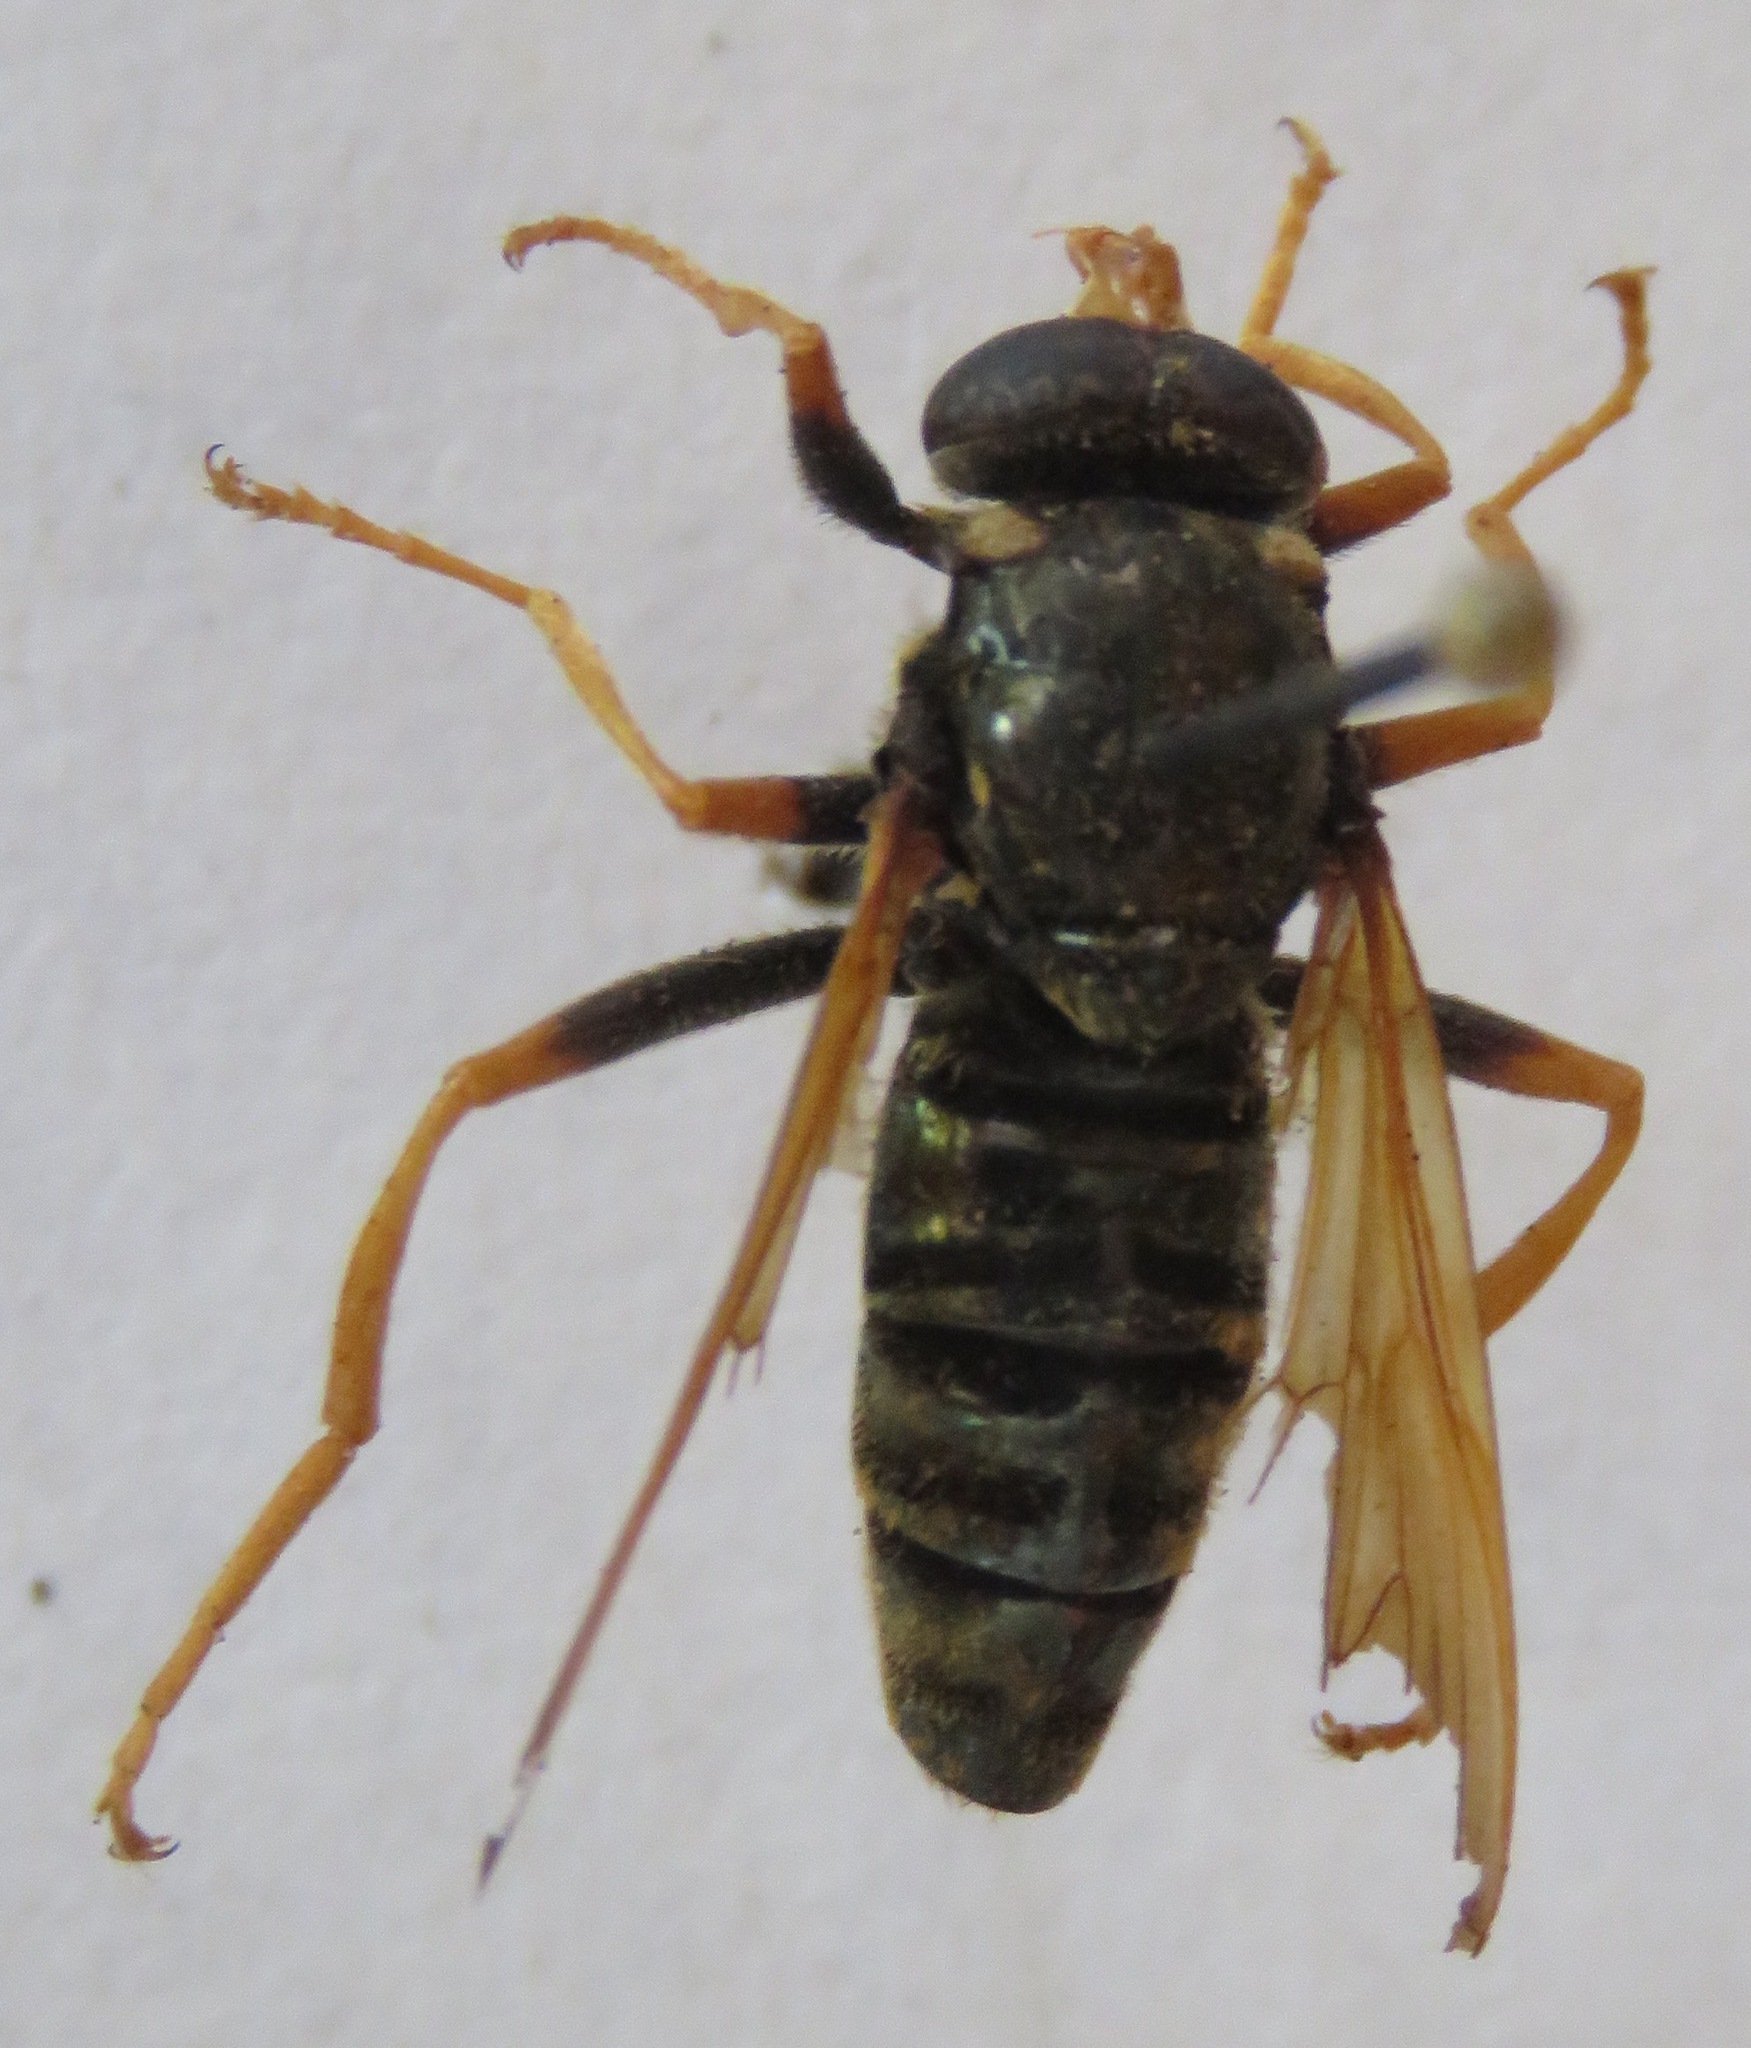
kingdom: Animalia
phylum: Arthropoda
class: Insecta
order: Diptera
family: Syrphidae
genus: Caliprobola
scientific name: Caliprobola speciosa
